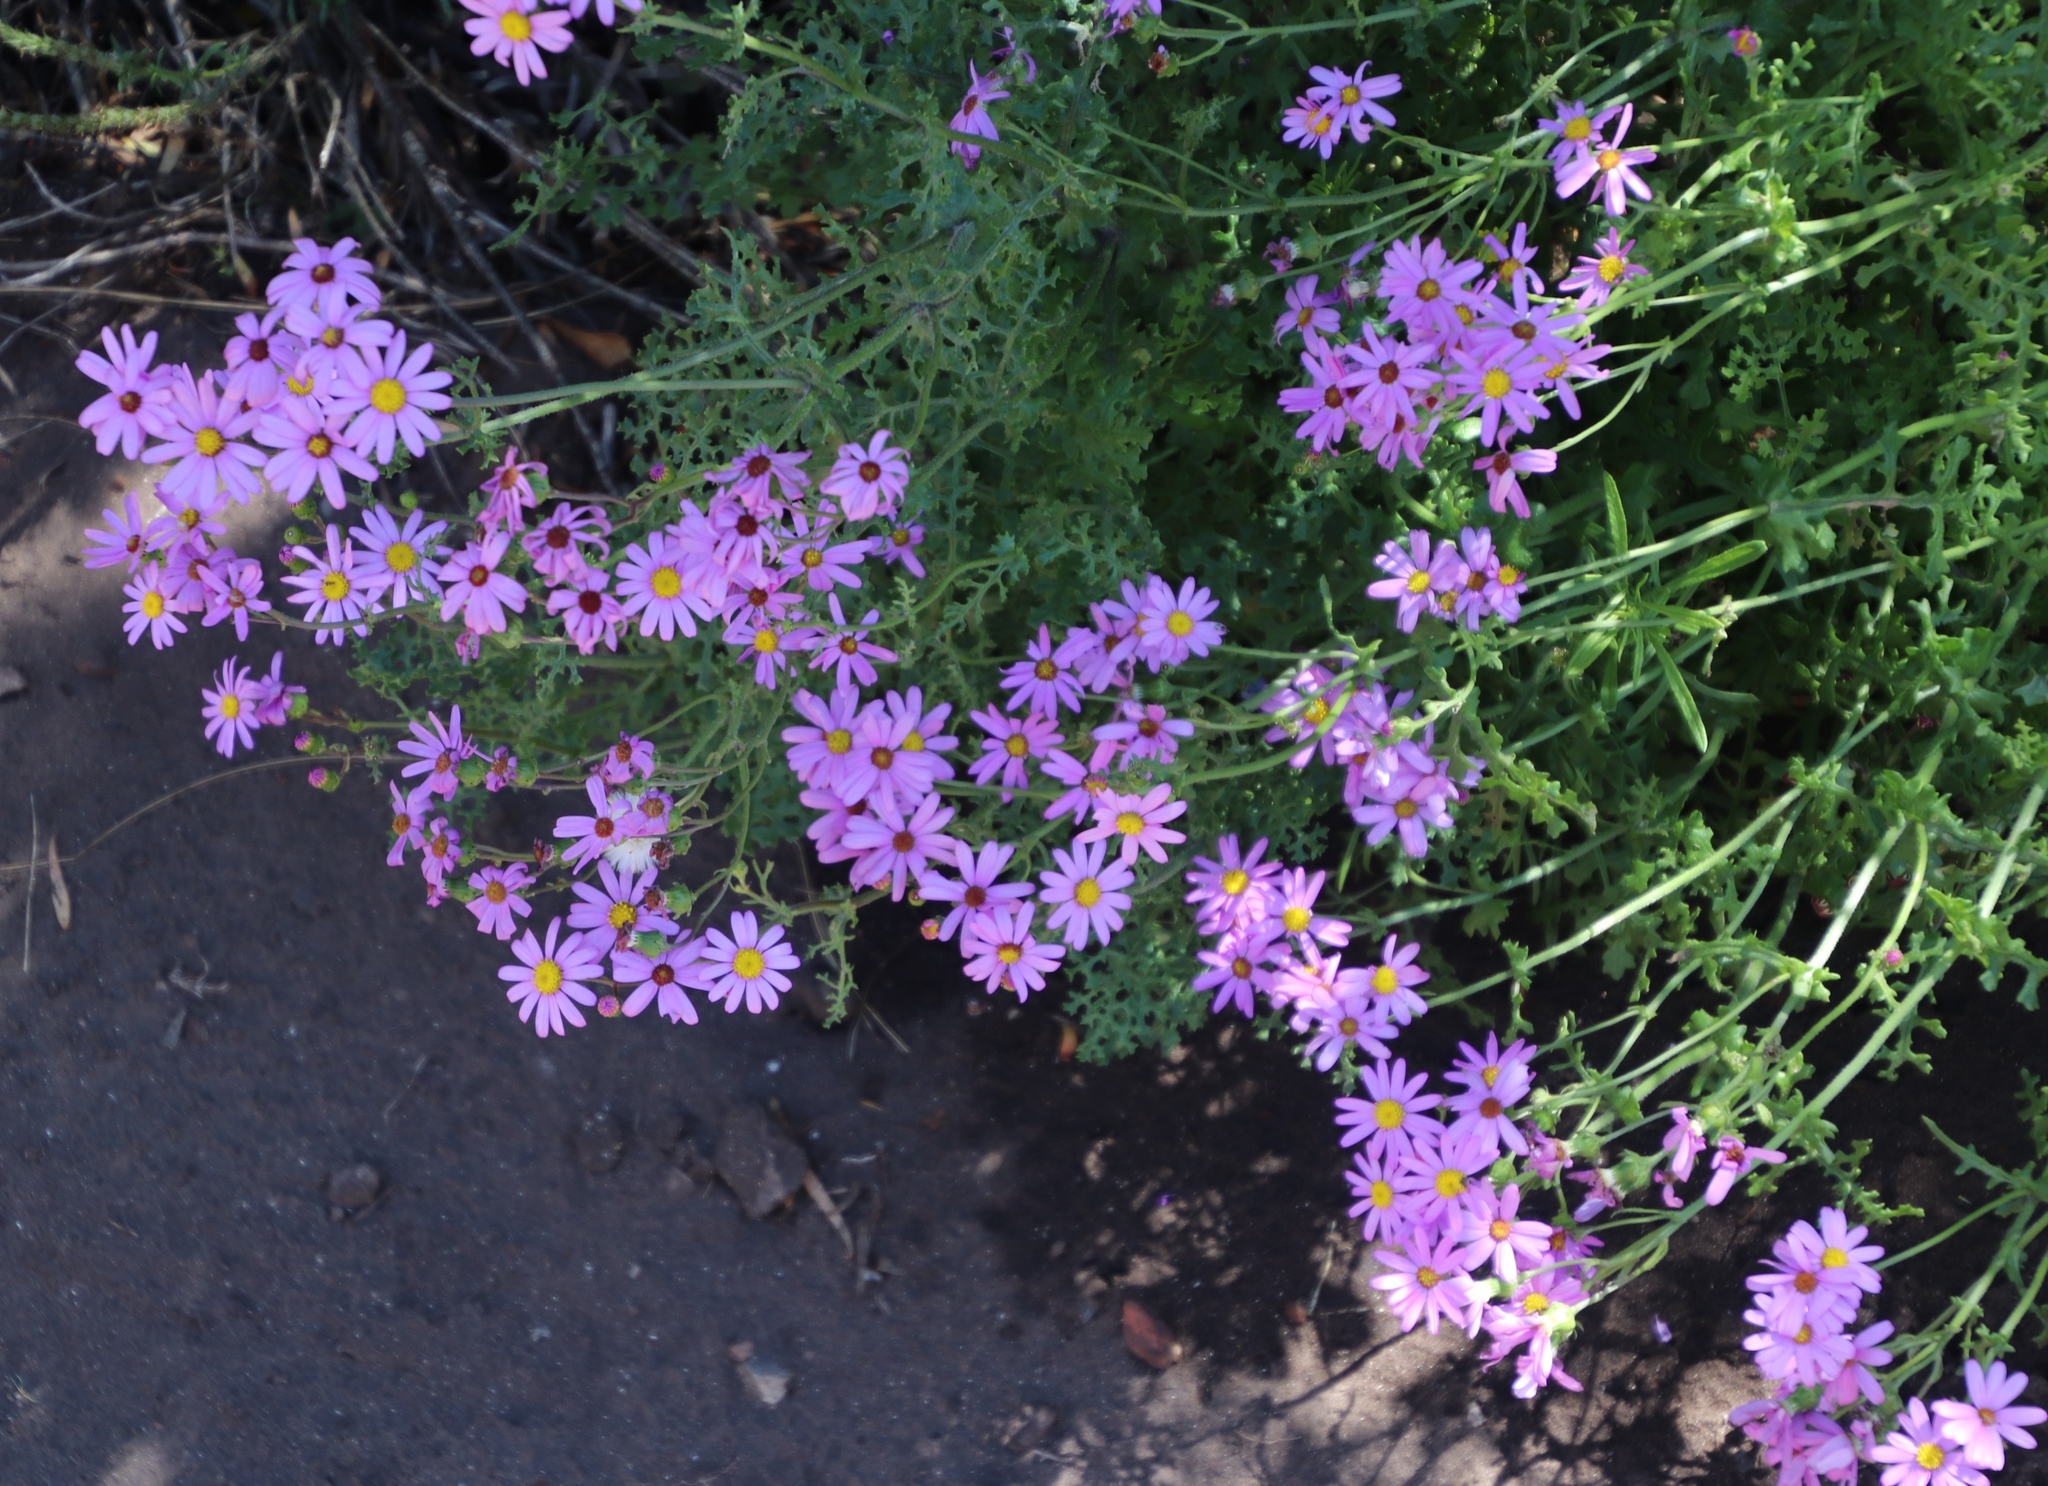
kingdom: Plantae
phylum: Tracheophyta
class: Magnoliopsida
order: Asterales
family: Asteraceae
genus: Senecio
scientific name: Senecio elegans
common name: Purple groundsel
